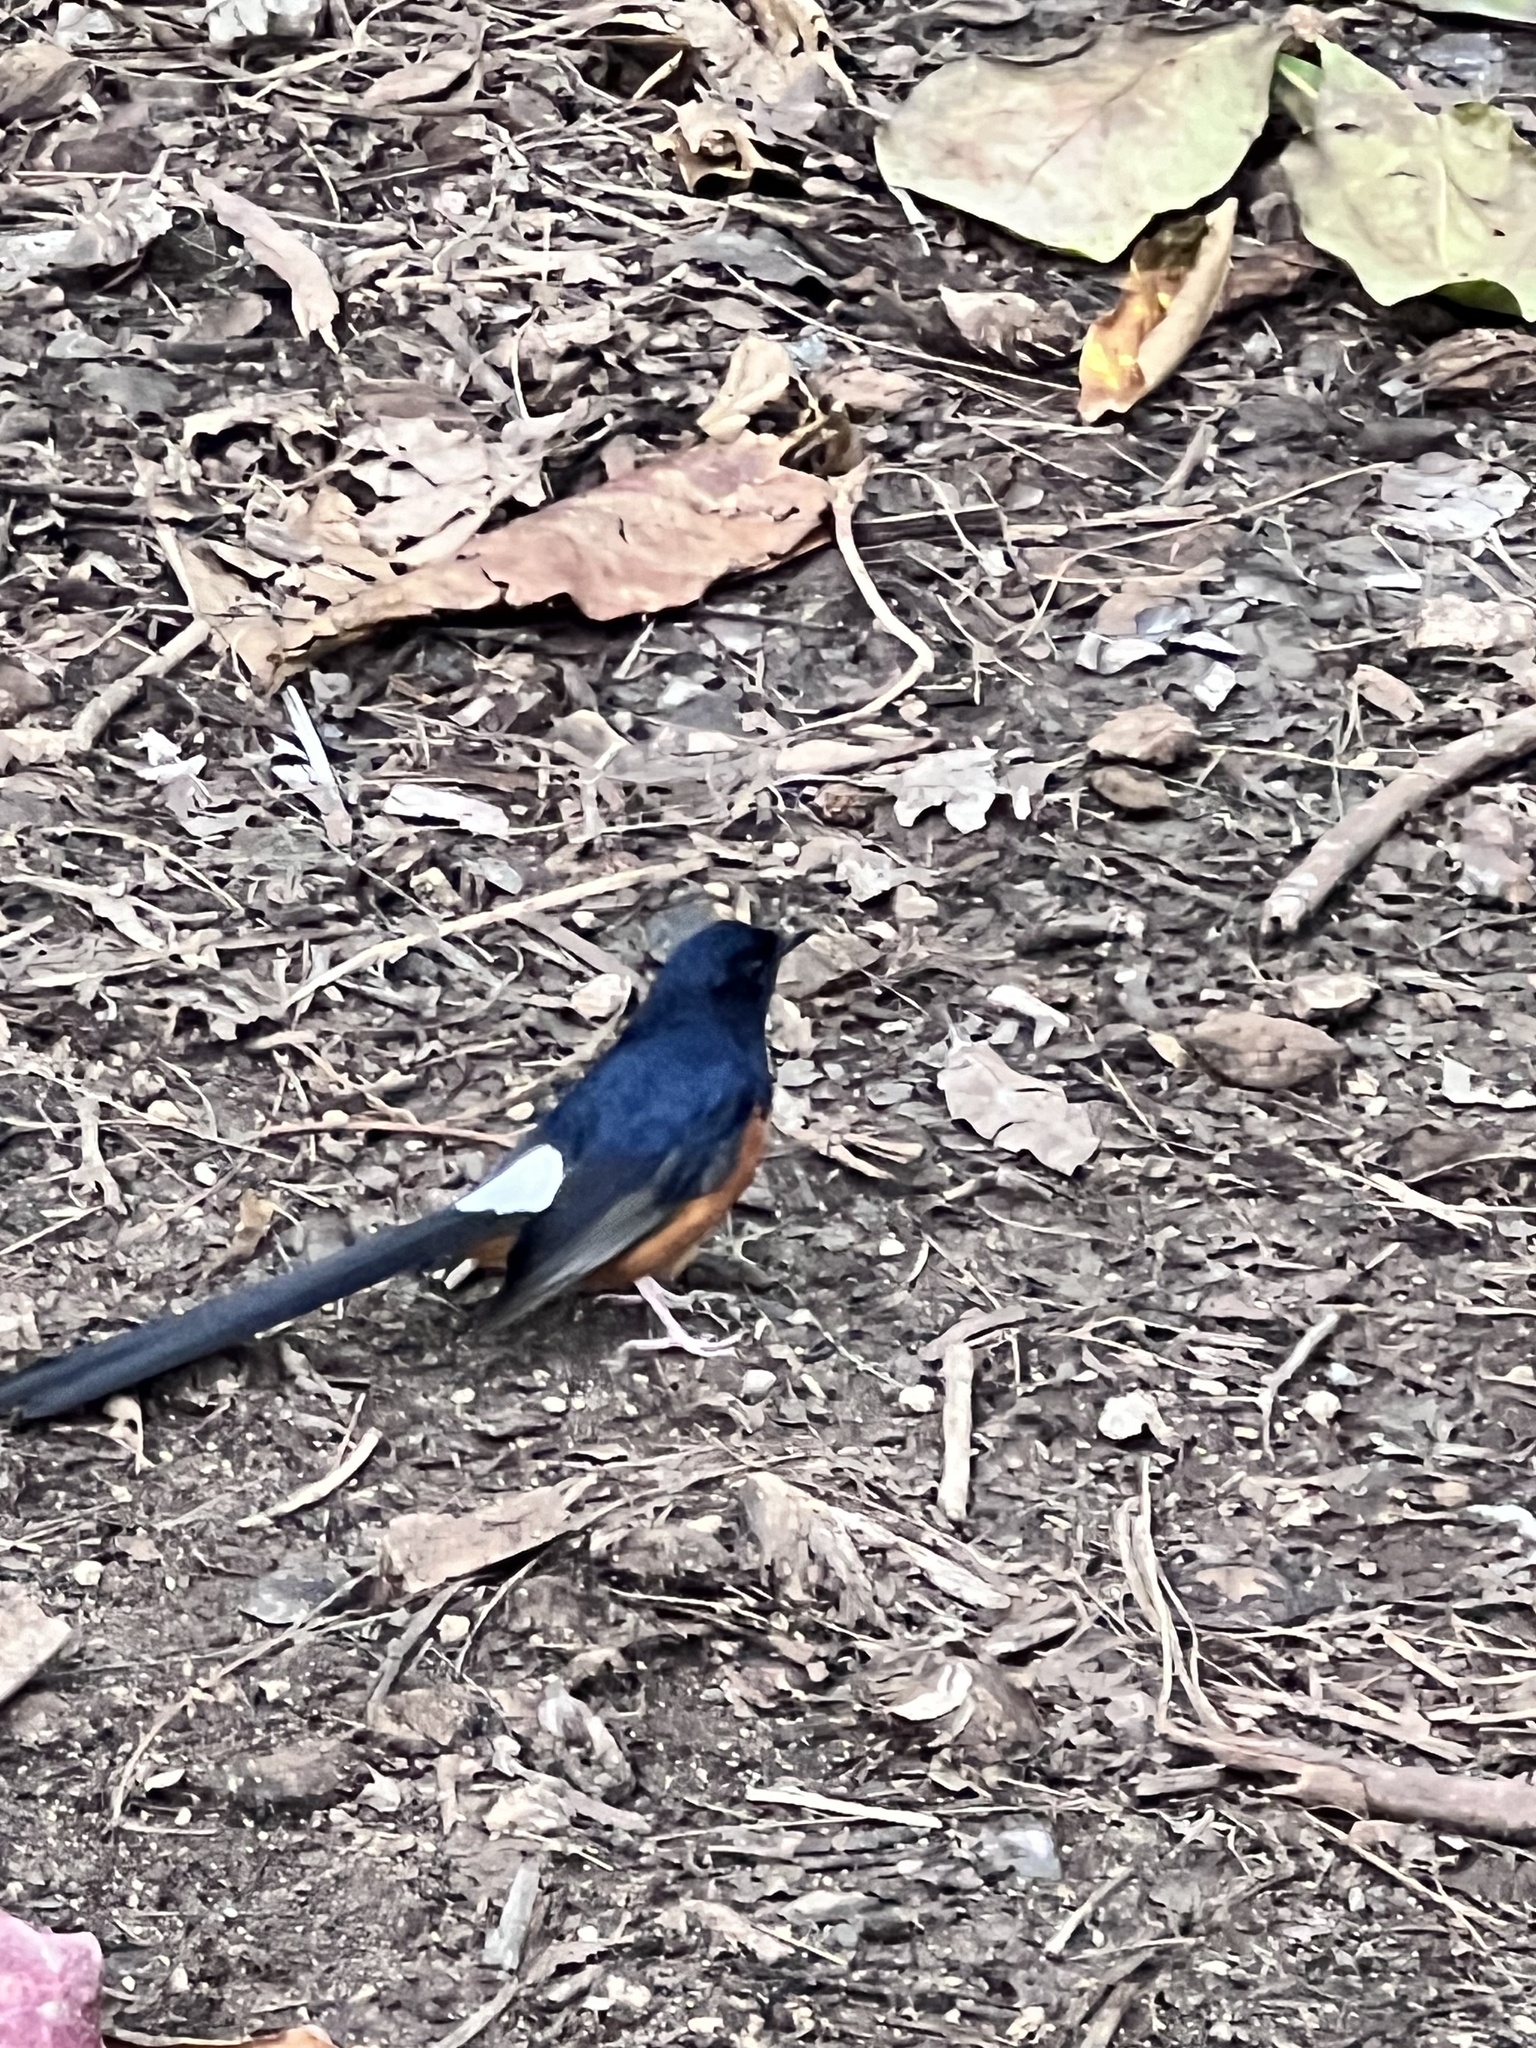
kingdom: Animalia
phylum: Chordata
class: Aves
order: Passeriformes
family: Muscicapidae
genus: Copsychus
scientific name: Copsychus malabaricus
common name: White-rumped shama
